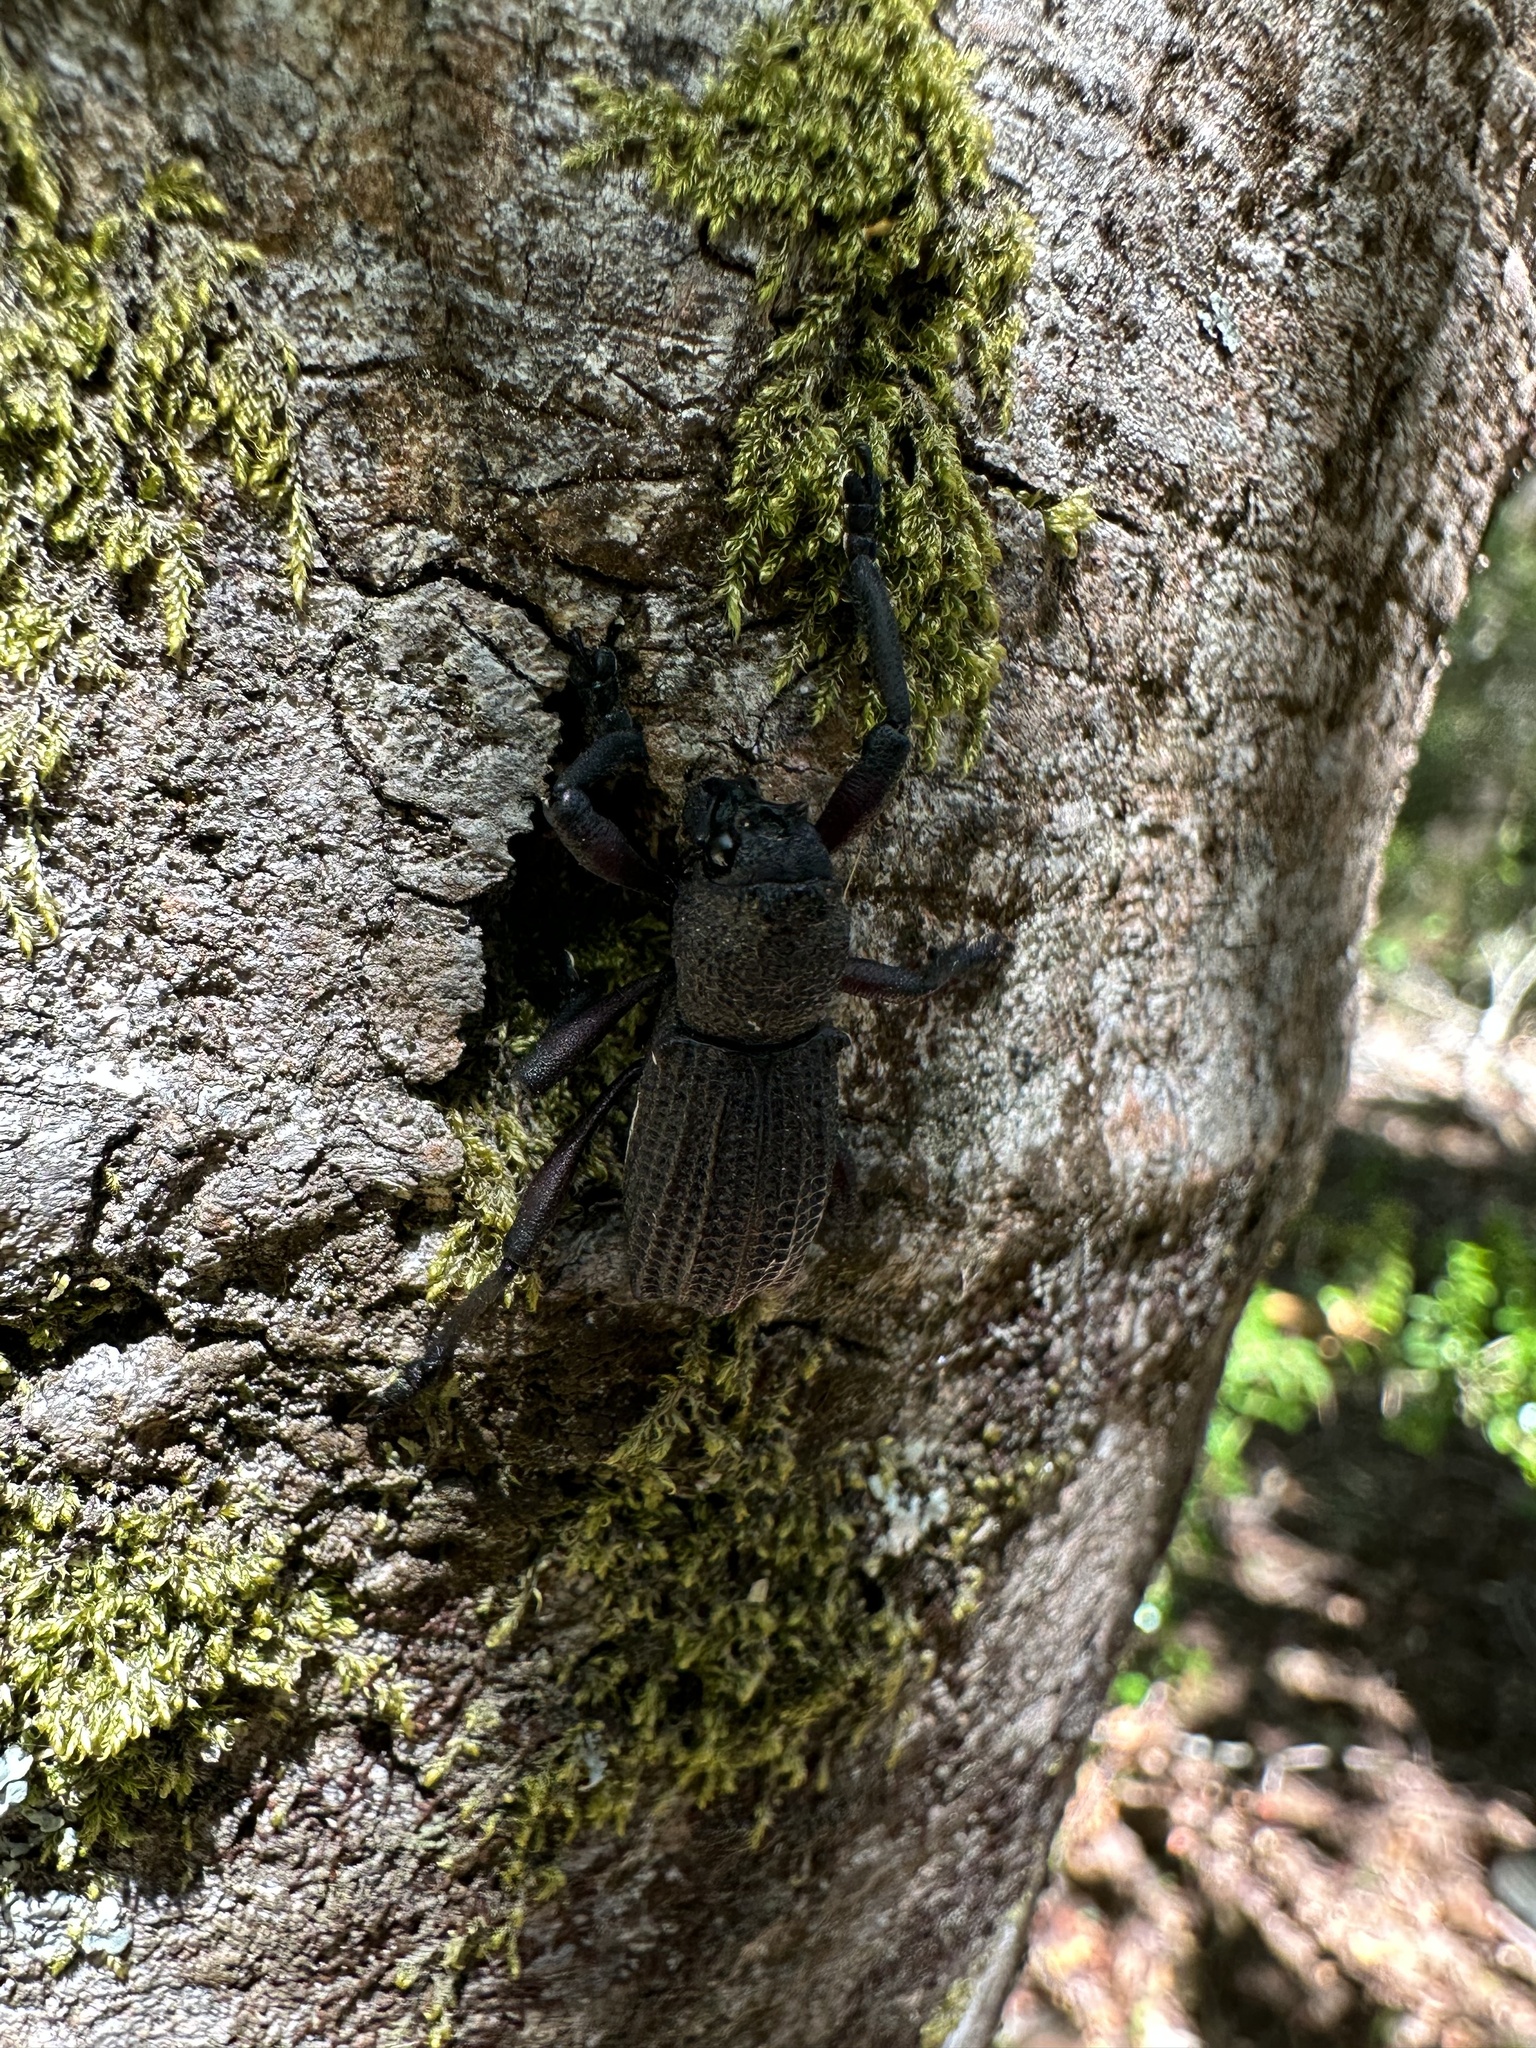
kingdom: Animalia
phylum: Arthropoda
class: Insecta
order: Coleoptera
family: Curculionidae
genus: Aegorhinus
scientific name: Aegorhinus
